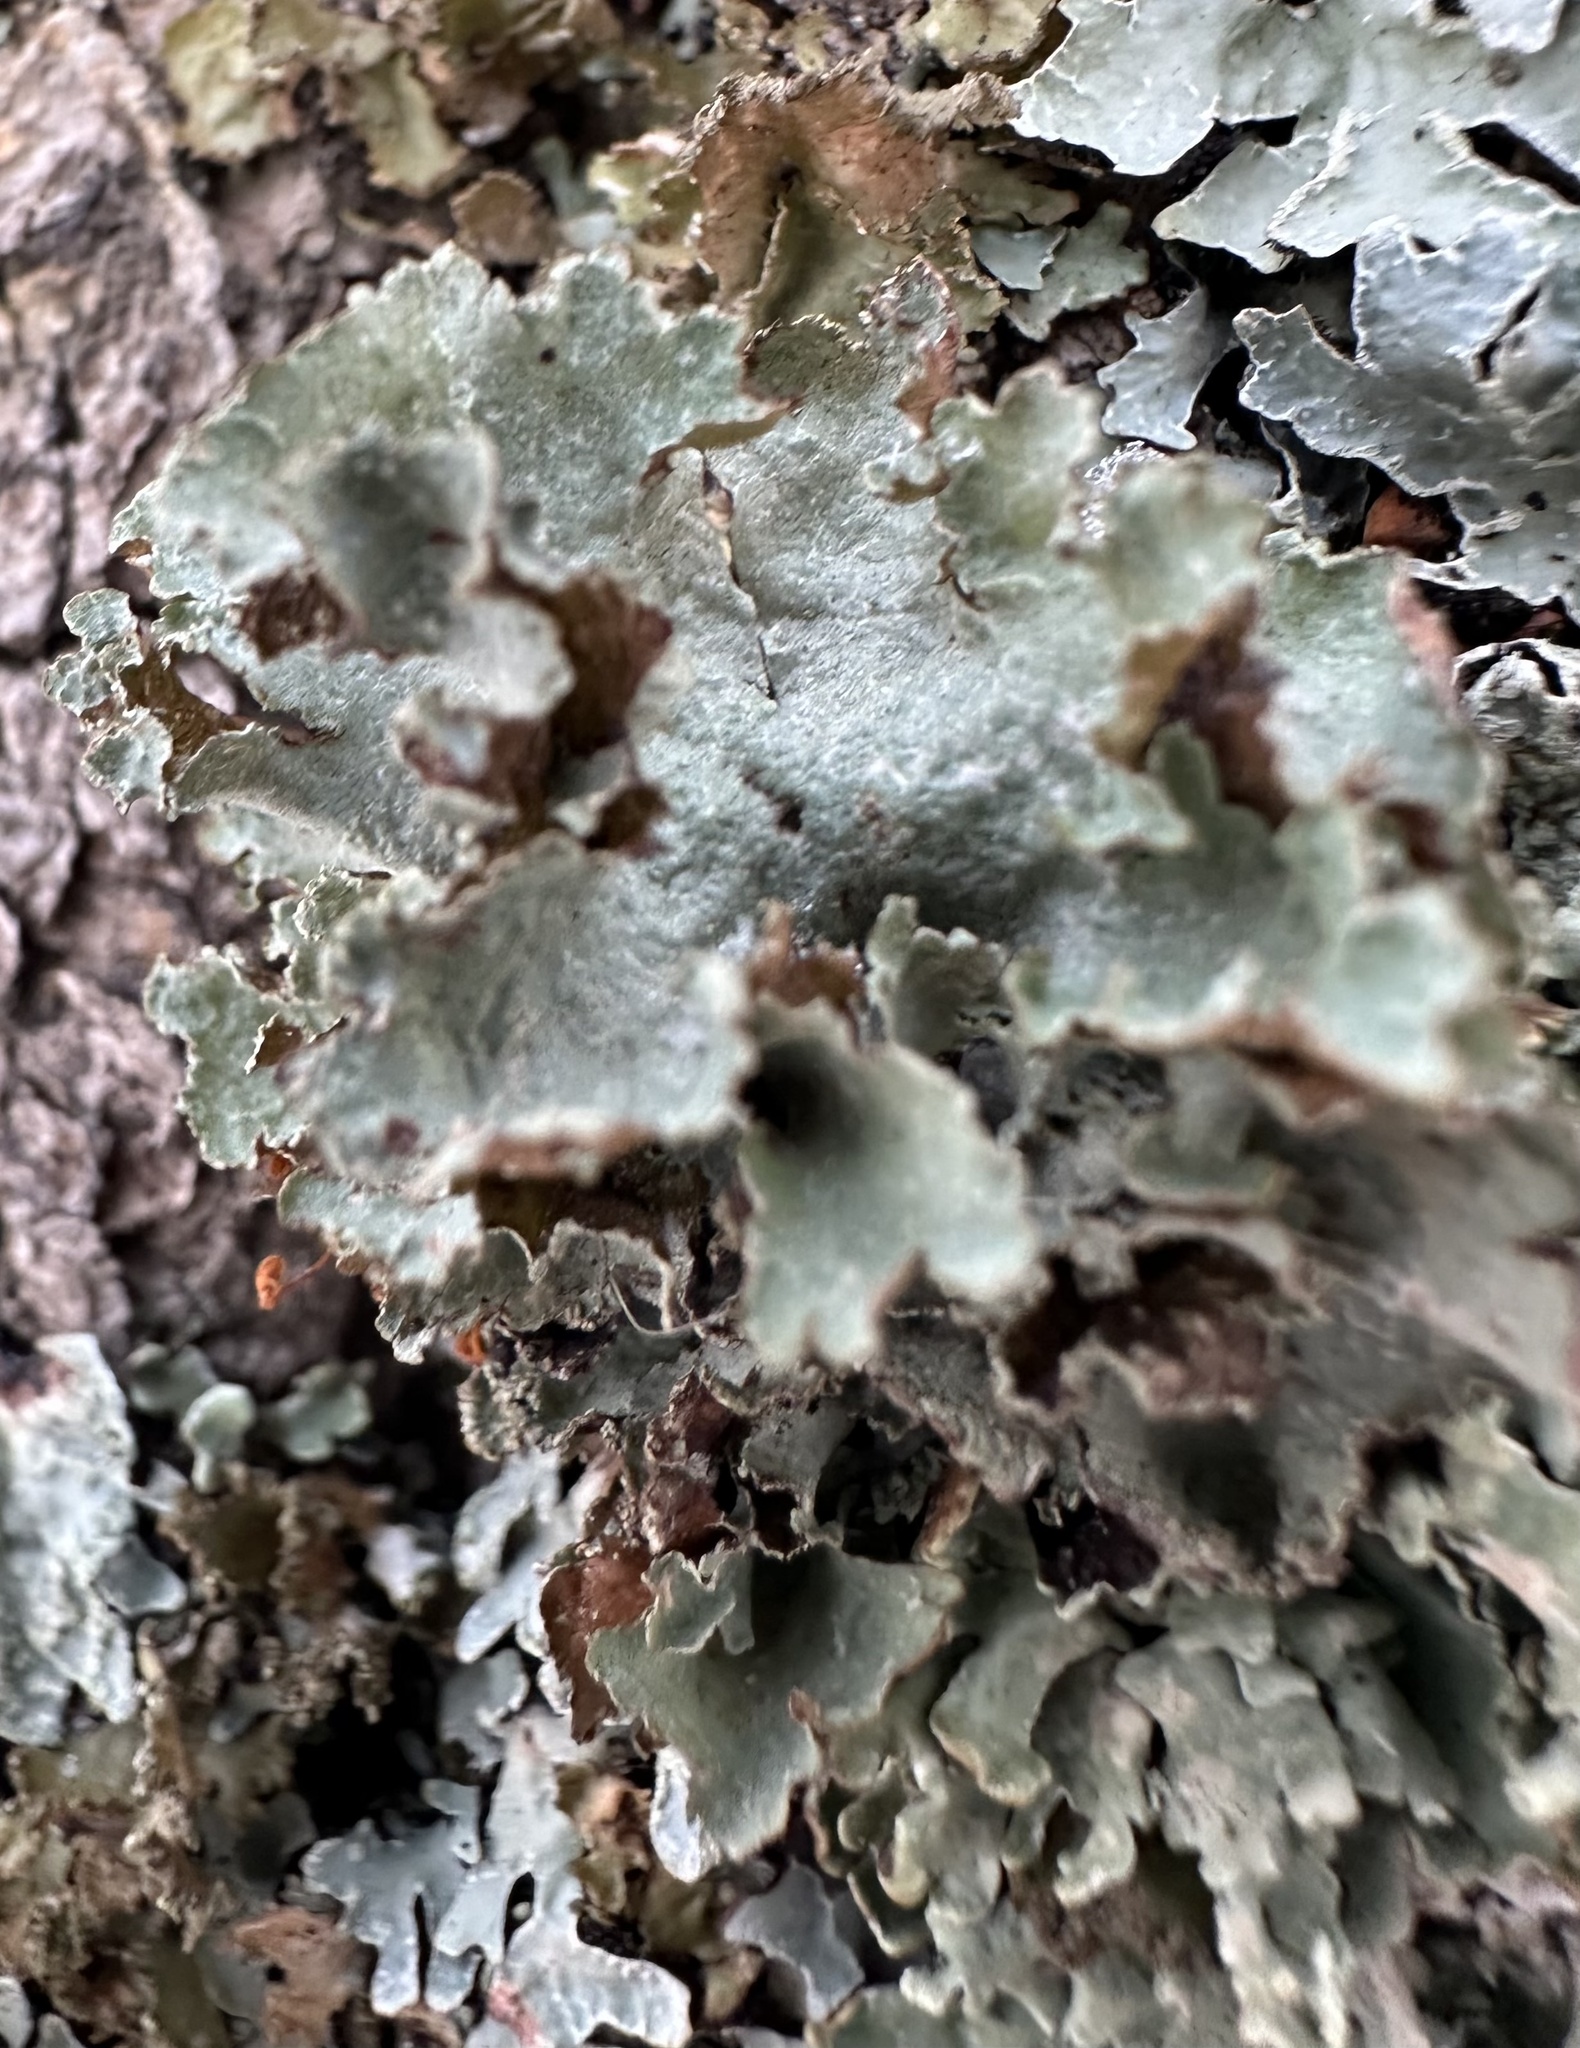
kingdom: Fungi
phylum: Ascomycota
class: Lecanoromycetes
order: Lecanorales
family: Parmeliaceae
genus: Platismatia
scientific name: Platismatia glauca
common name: Varied rag lichen
